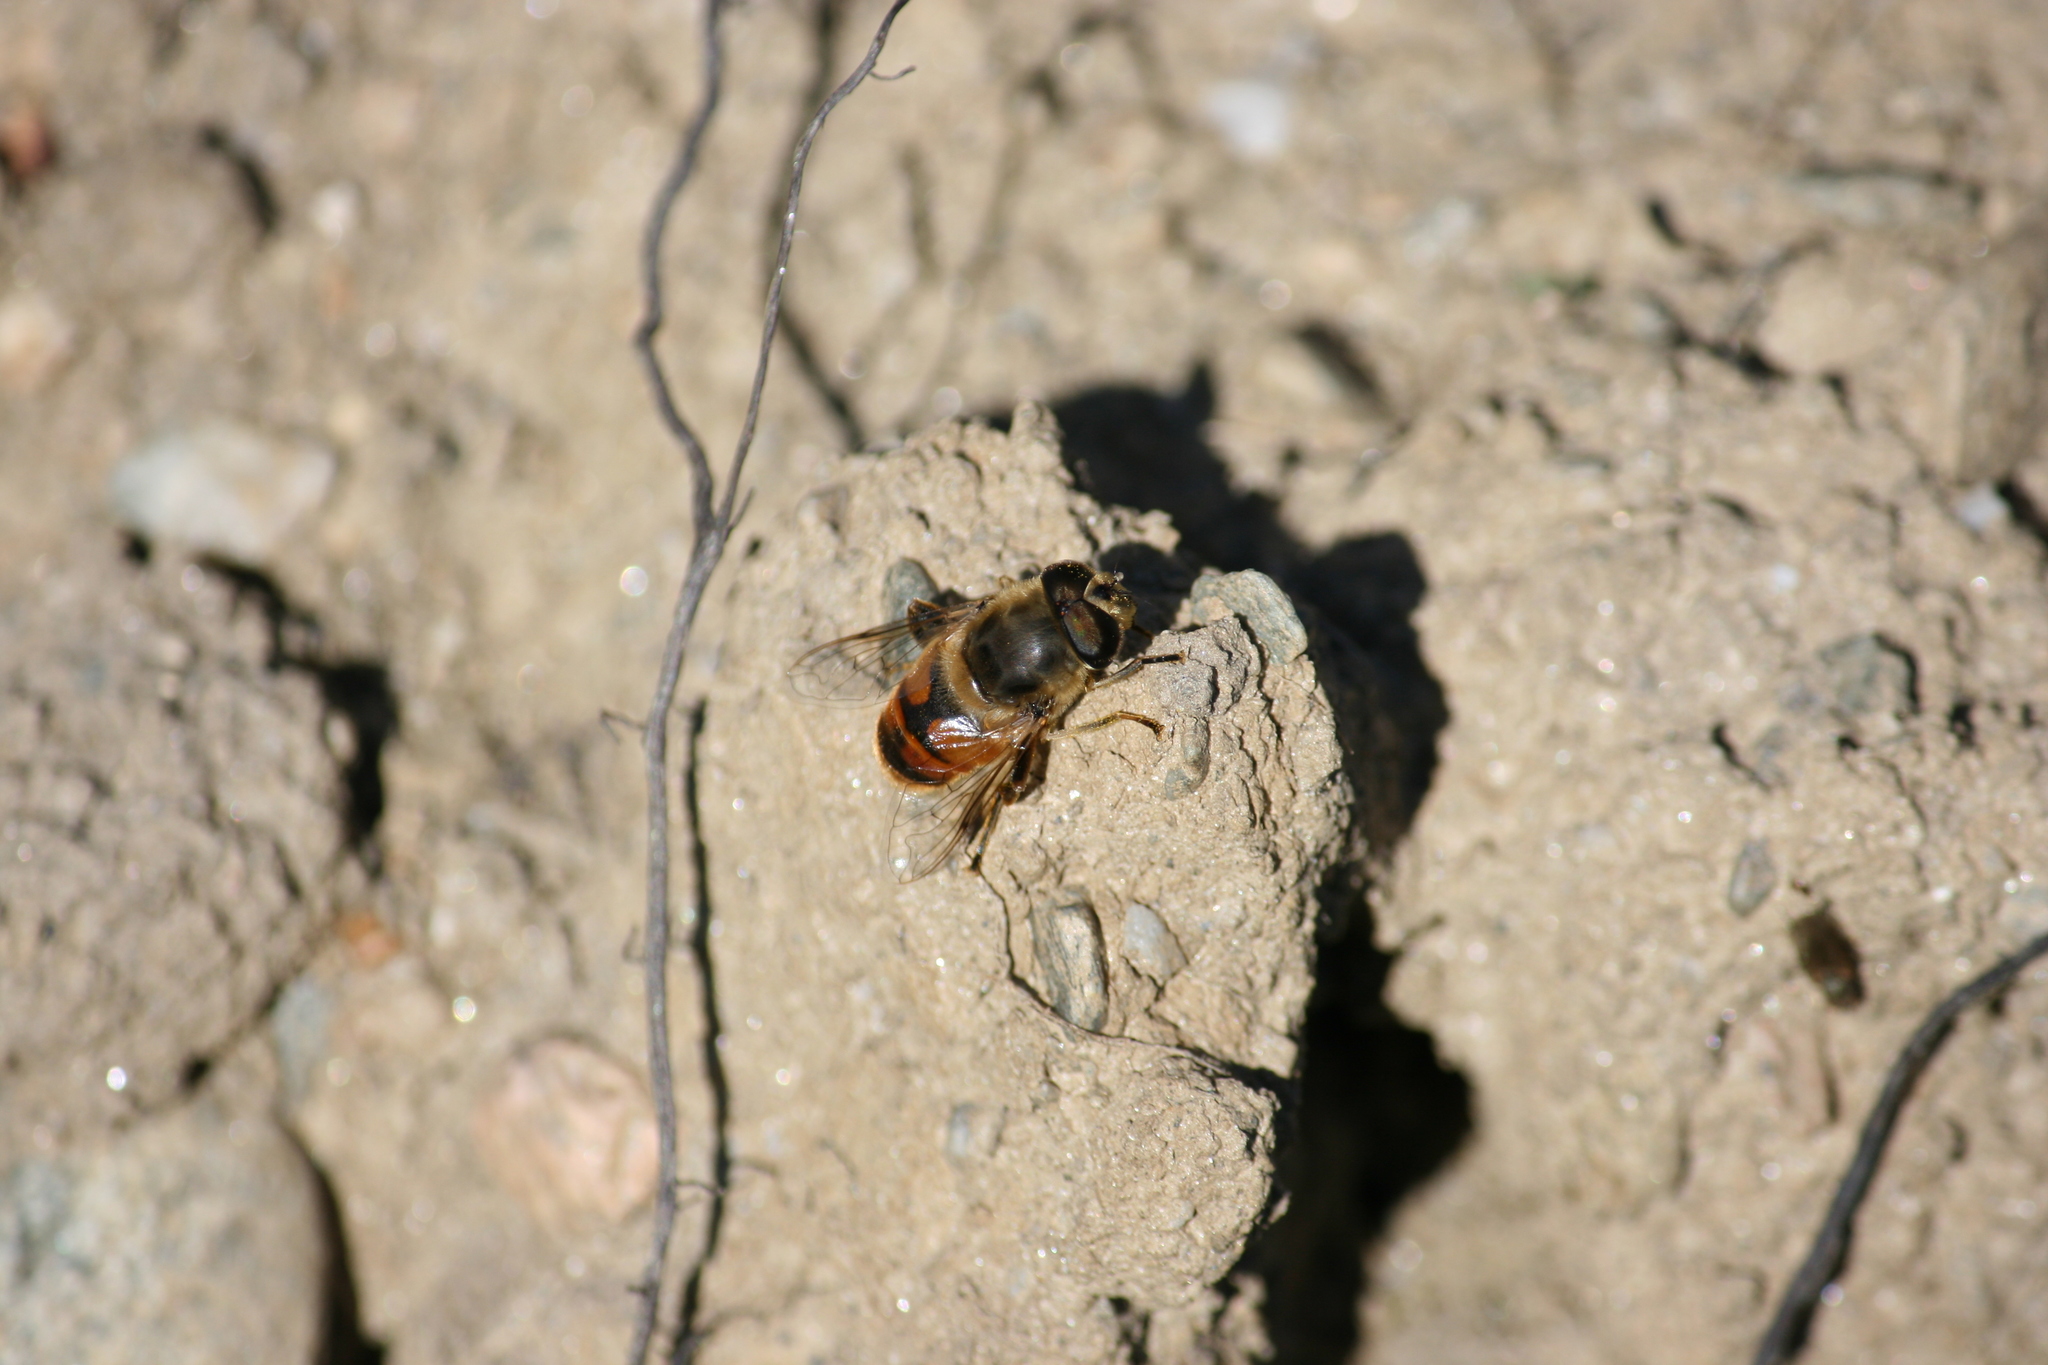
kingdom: Animalia
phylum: Arthropoda
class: Insecta
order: Diptera
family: Syrphidae
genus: Eristalis
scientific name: Eristalis tenax
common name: Drone fly
